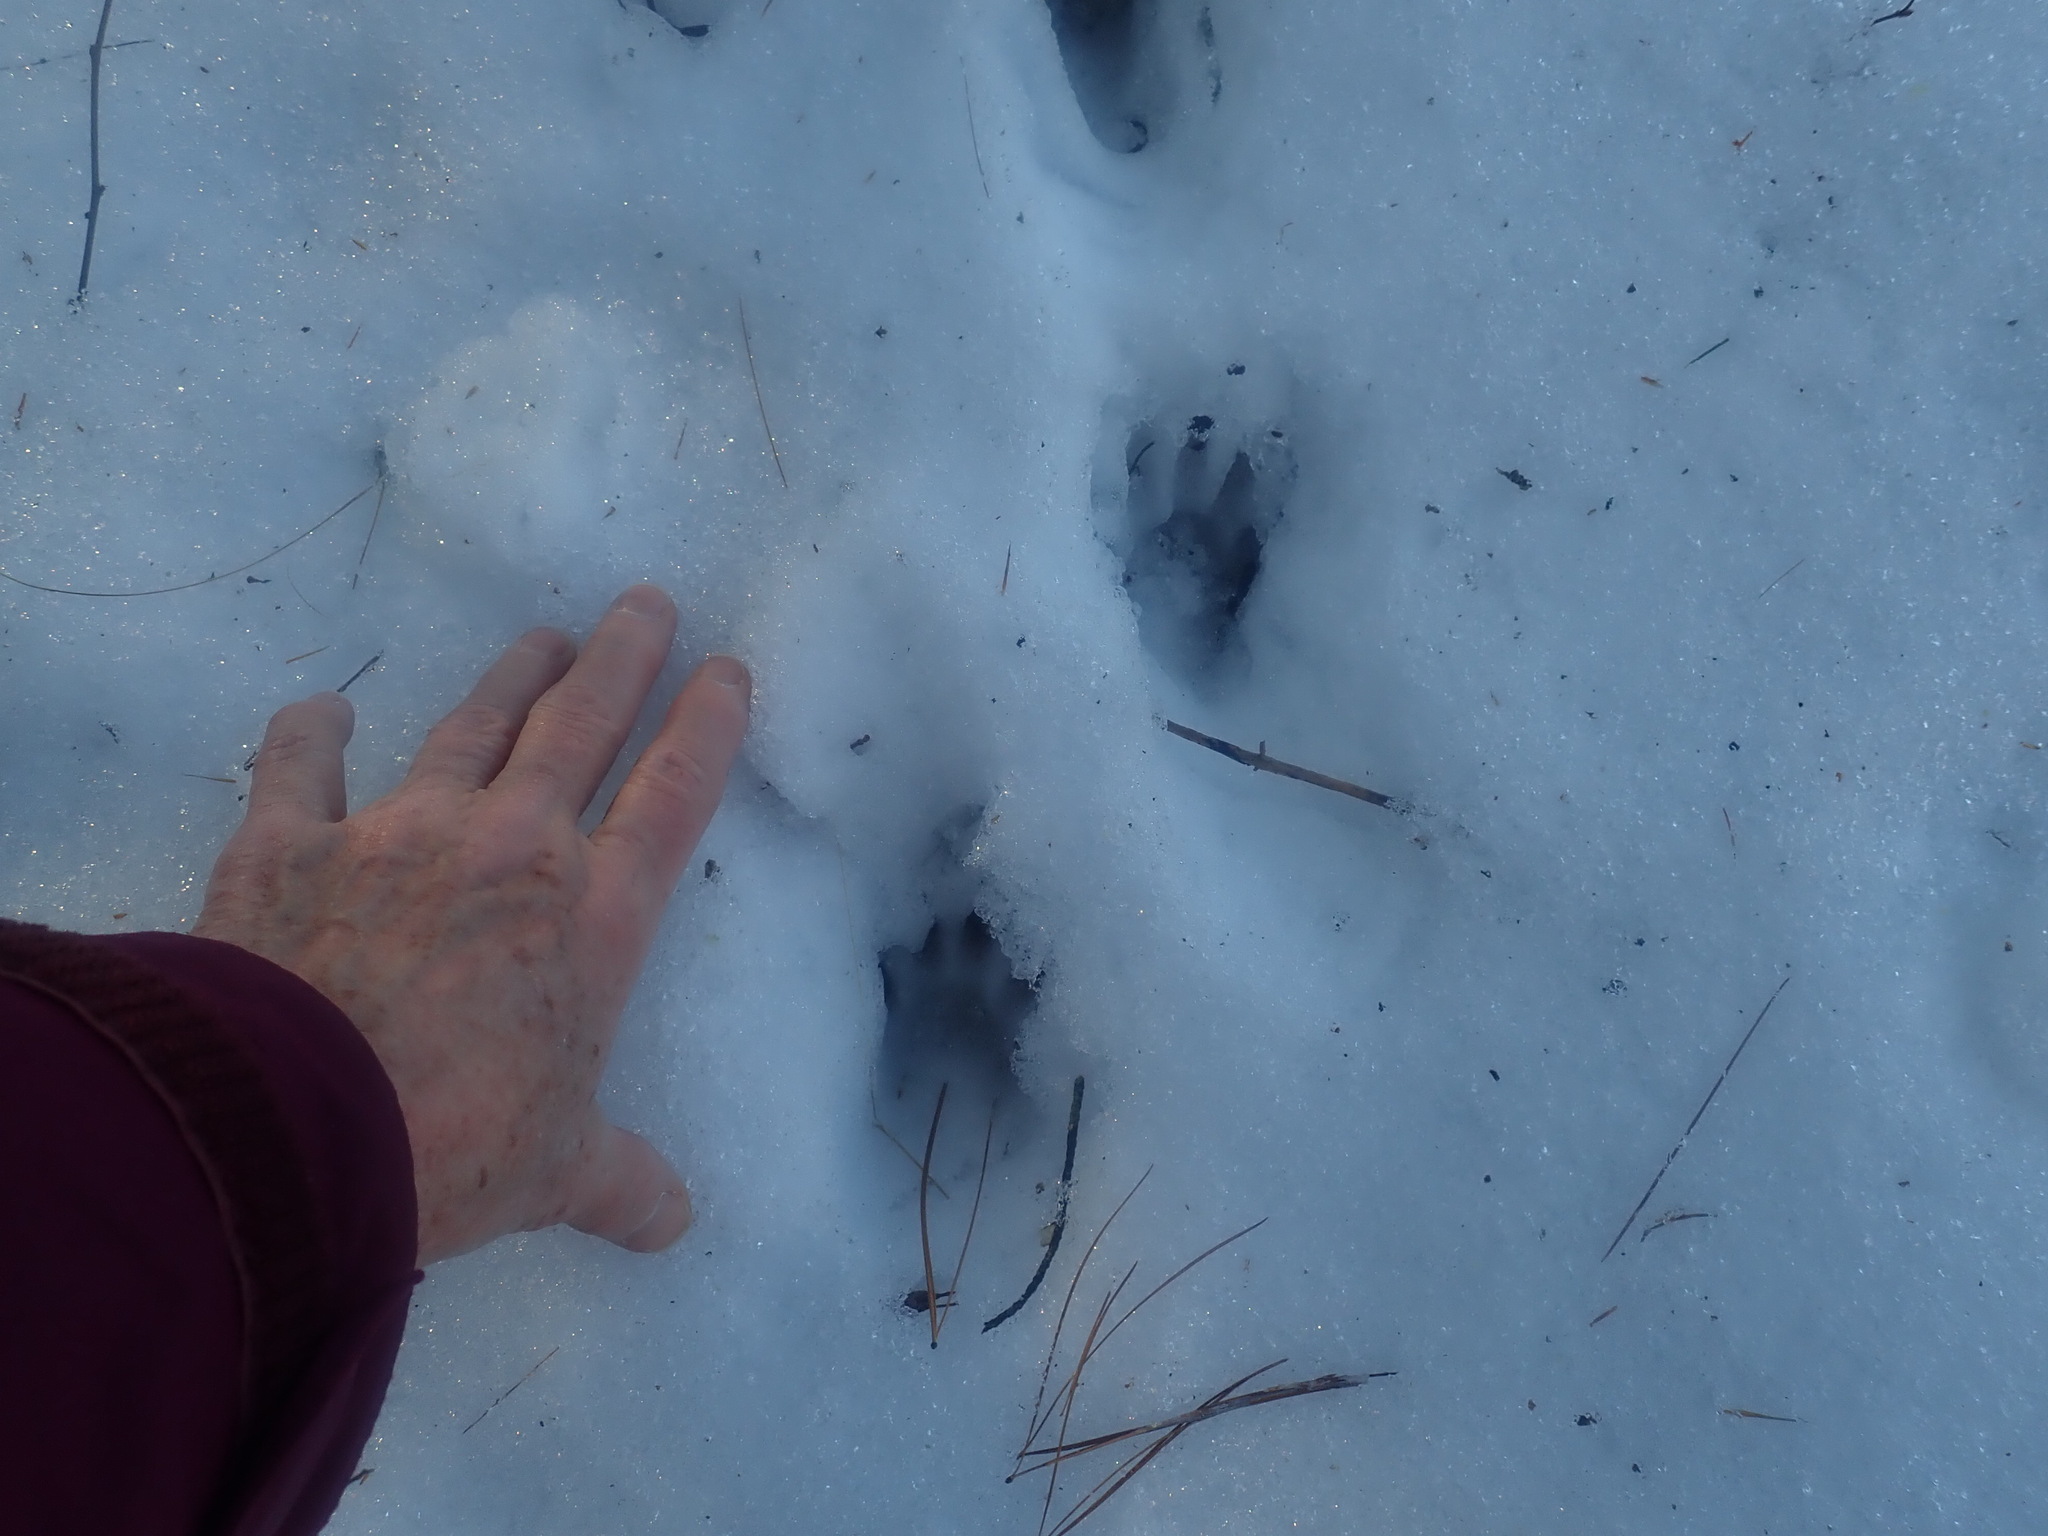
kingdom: Animalia
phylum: Chordata
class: Mammalia
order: Carnivora
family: Procyonidae
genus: Procyon
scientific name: Procyon lotor
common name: Raccoon
